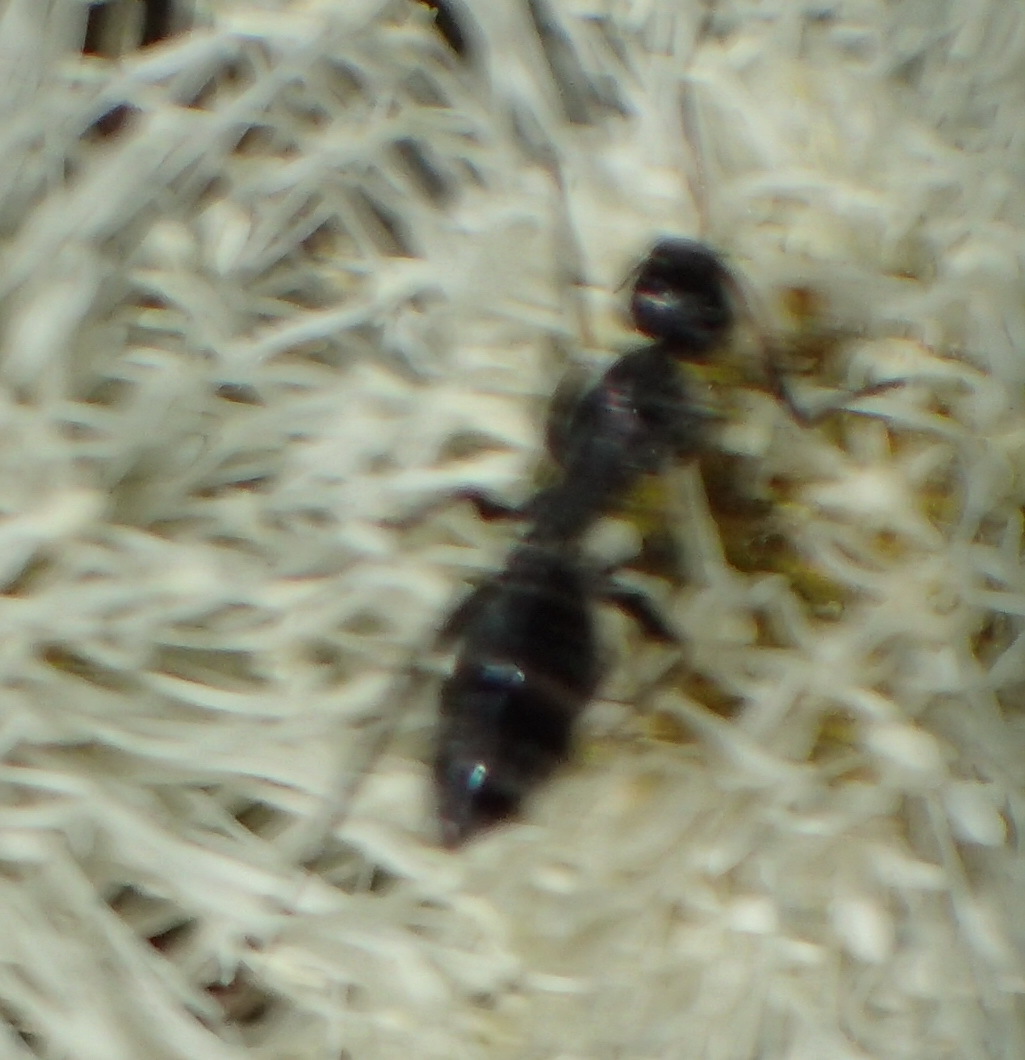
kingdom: Animalia
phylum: Arthropoda
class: Insecta
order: Hymenoptera
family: Formicidae
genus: Camponotus
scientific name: Camponotus niveosetosus
